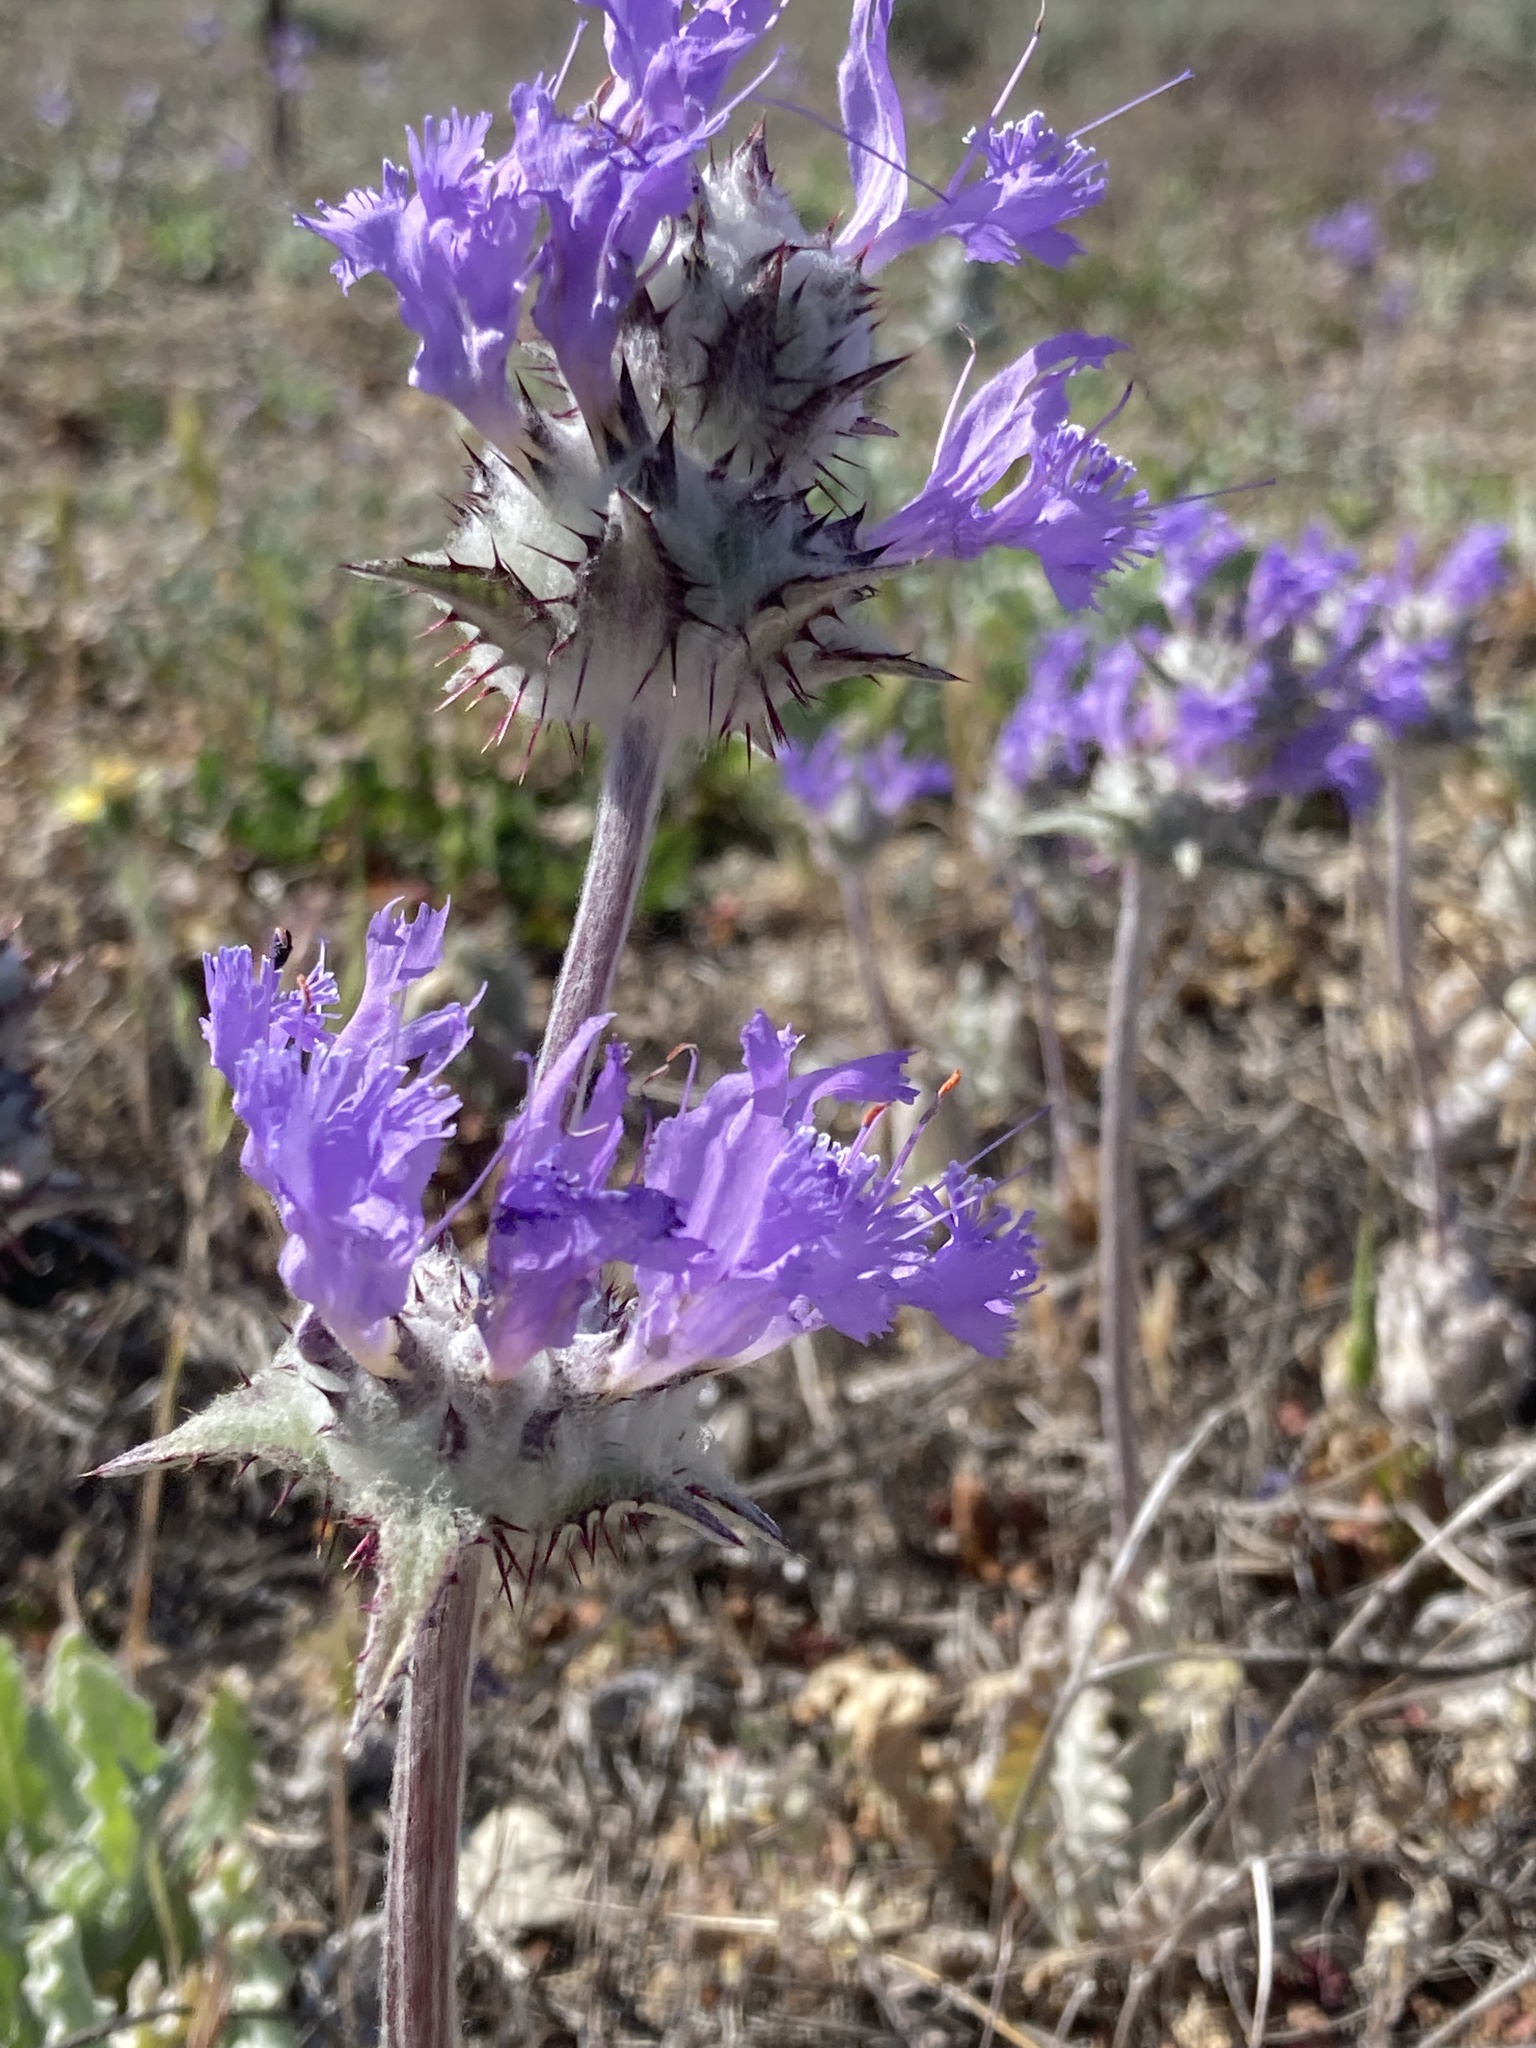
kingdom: Plantae
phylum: Tracheophyta
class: Magnoliopsida
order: Lamiales
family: Lamiaceae
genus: Salvia
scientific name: Salvia carduacea
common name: Thistle sage
